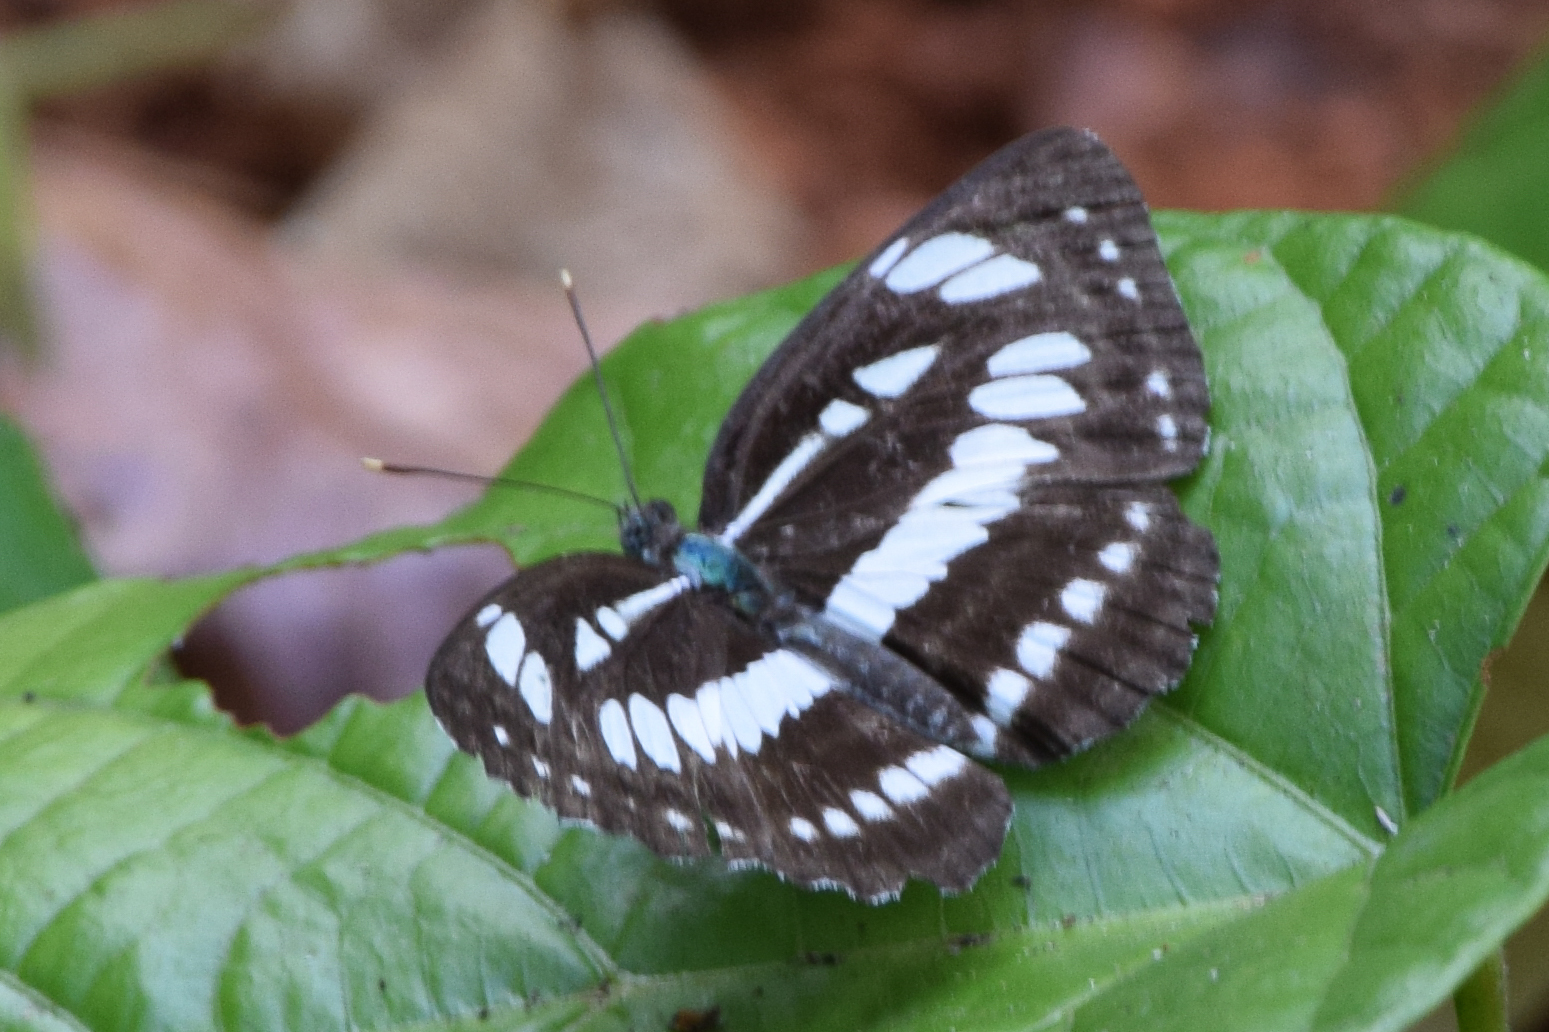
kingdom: Animalia
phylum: Arthropoda
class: Insecta
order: Lepidoptera
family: Nymphalidae
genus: Neptis
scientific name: Neptis hylas
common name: Common sailer
